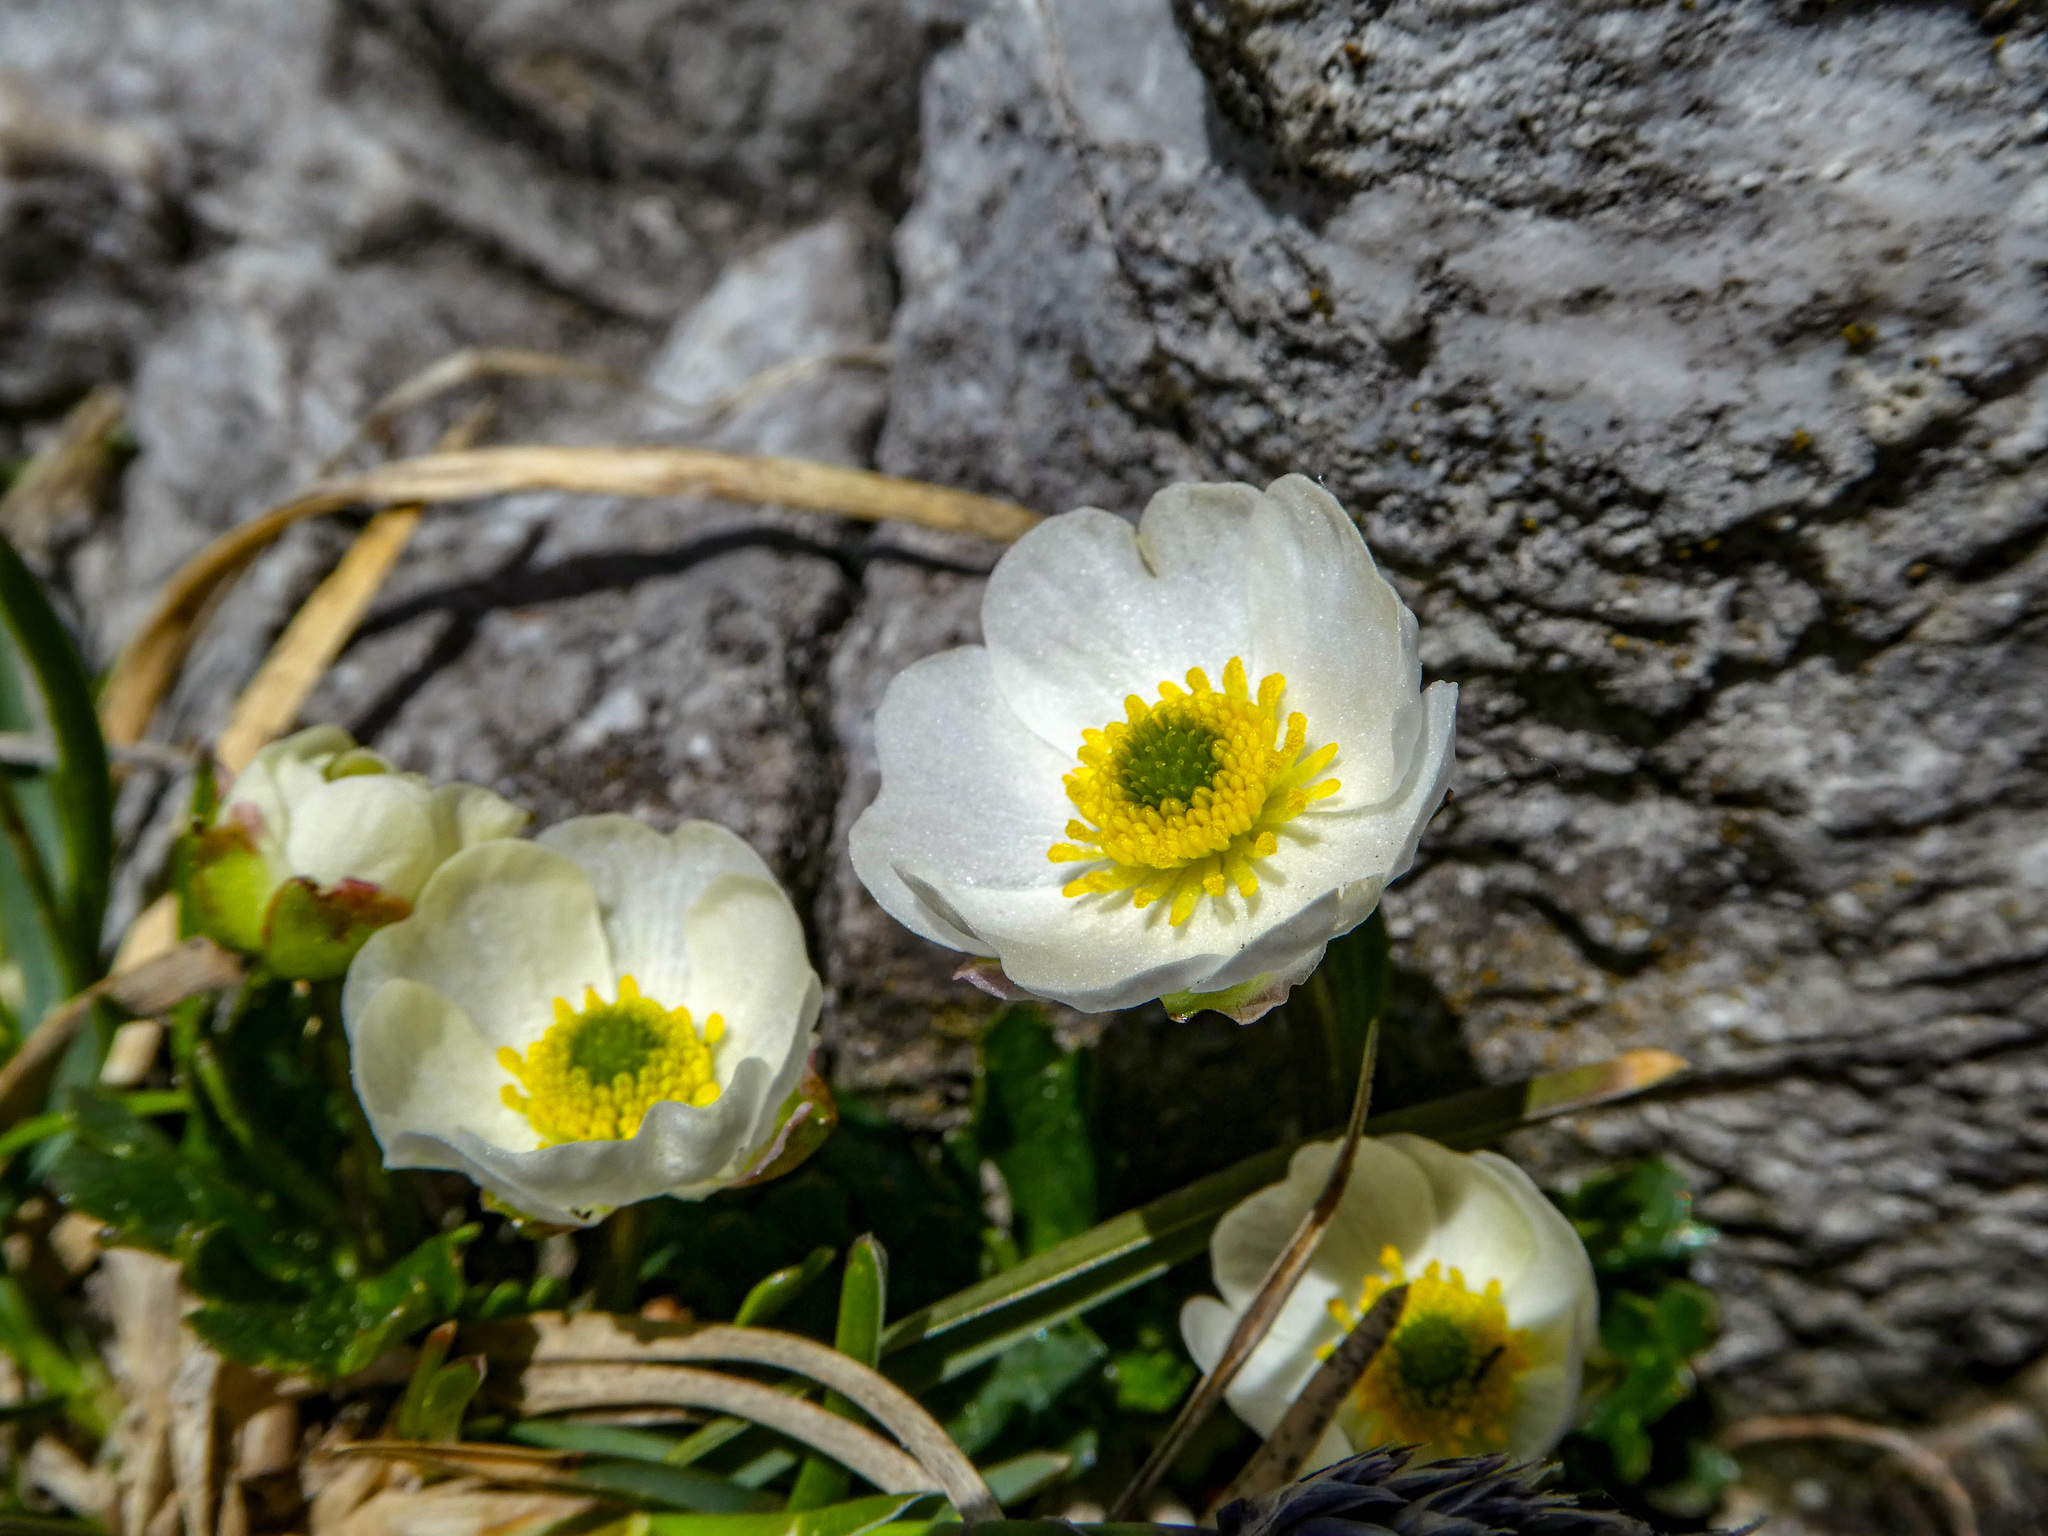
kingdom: Plantae
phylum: Tracheophyta
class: Magnoliopsida
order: Ranunculales
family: Ranunculaceae
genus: Ranunculus
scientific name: Ranunculus alpestris
